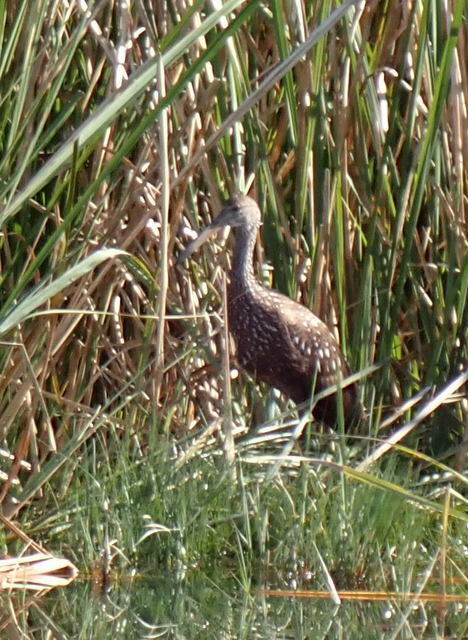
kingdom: Animalia
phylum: Chordata
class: Aves
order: Gruiformes
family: Aramidae
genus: Aramus
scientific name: Aramus guarauna
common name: Limpkin
